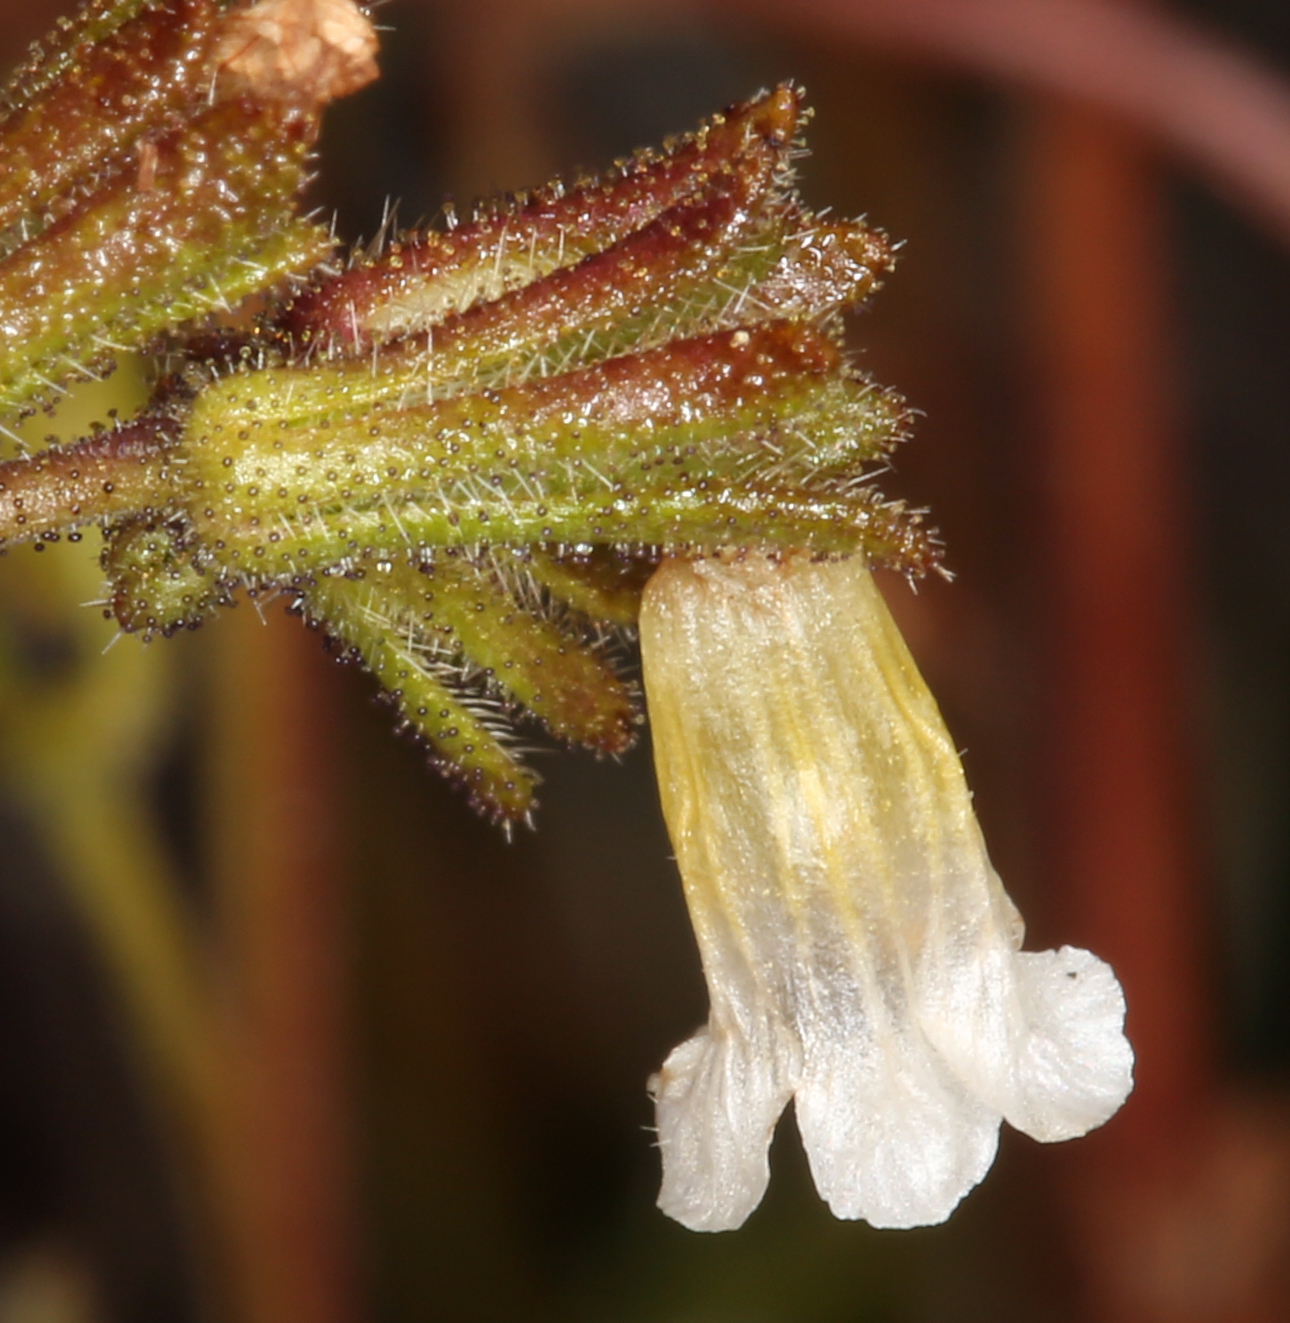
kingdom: Plantae
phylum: Tracheophyta
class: Magnoliopsida
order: Boraginales
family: Hydrophyllaceae
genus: Phacelia
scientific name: Phacelia affinis
